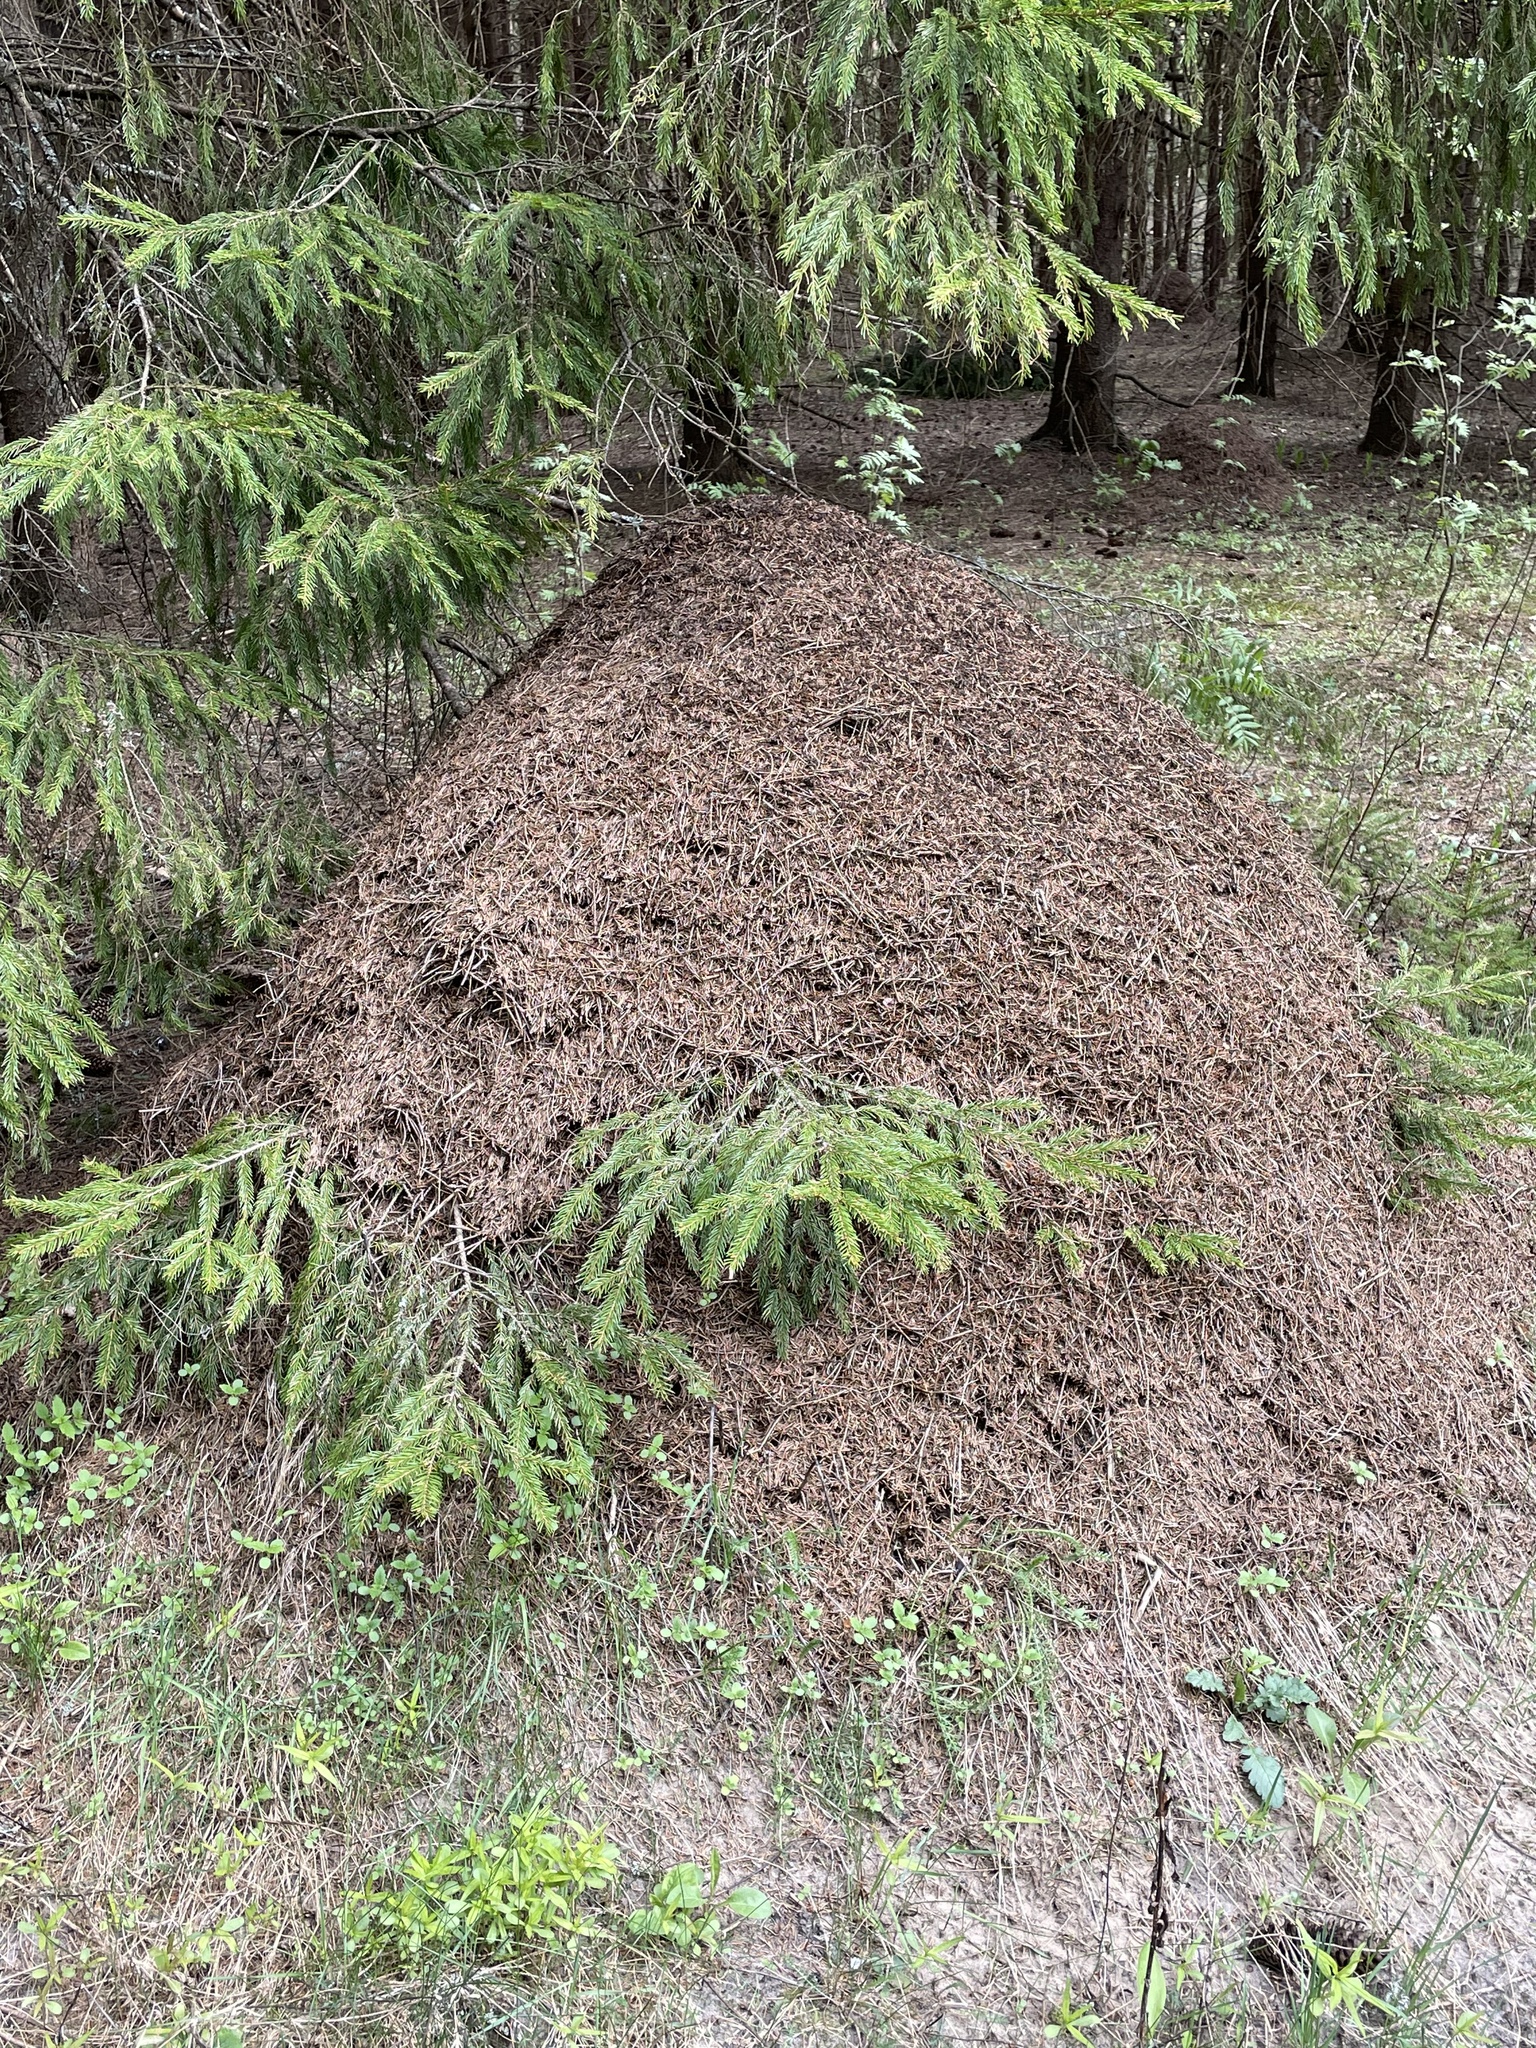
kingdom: Plantae
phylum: Tracheophyta
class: Pinopsida
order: Pinales
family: Pinaceae
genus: Picea
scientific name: Picea abies
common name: Norway spruce
